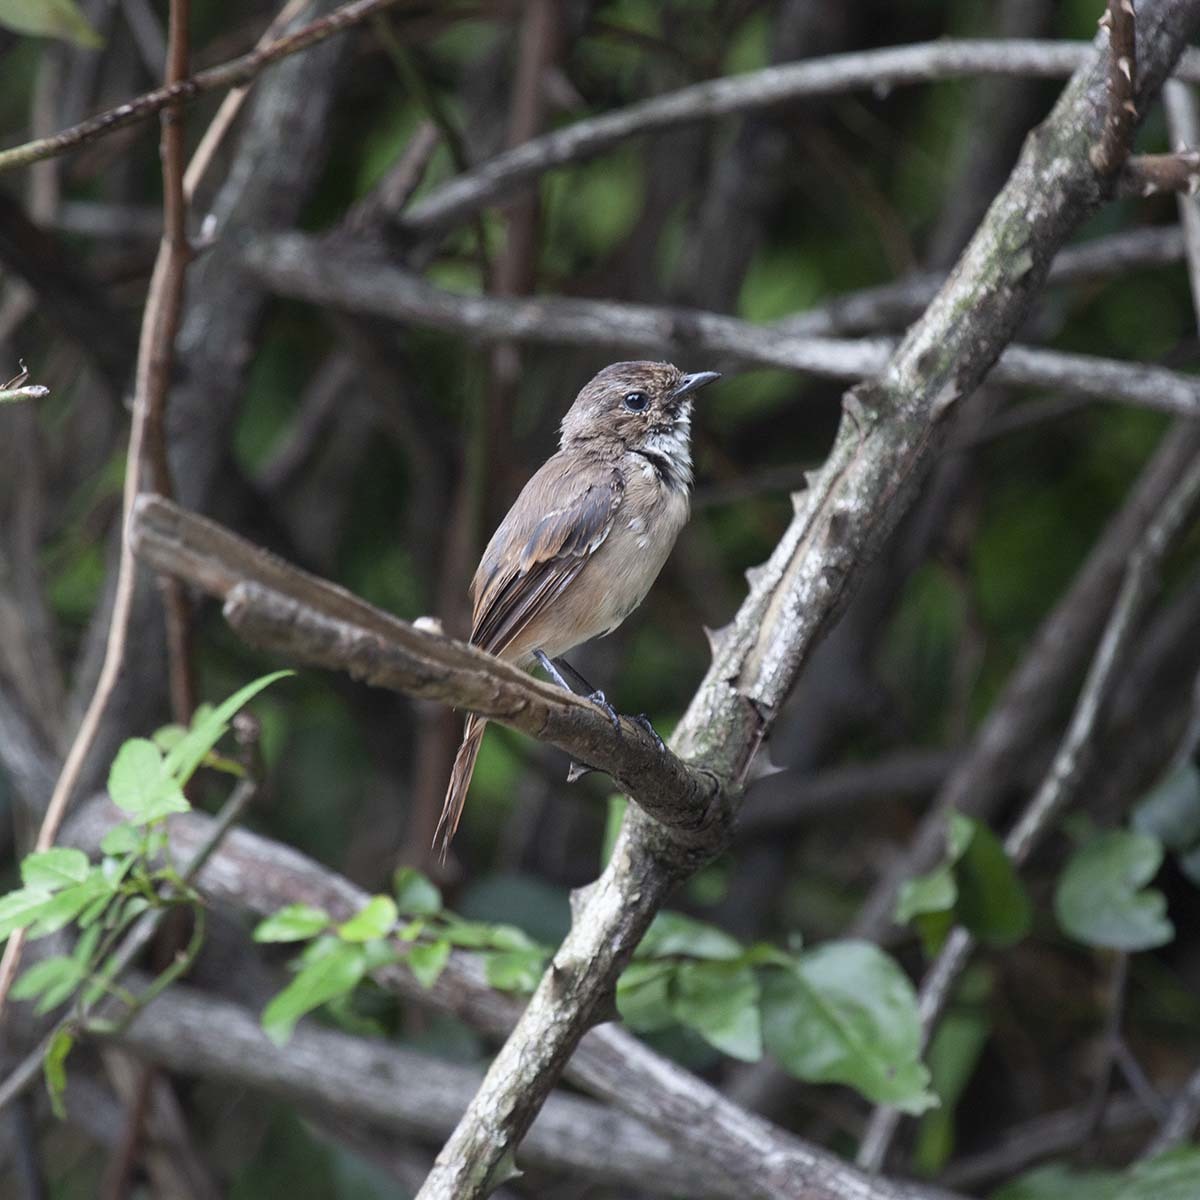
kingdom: Animalia
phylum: Chordata
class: Aves
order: Passeriformes
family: Muscicapidae
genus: Saxicola
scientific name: Saxicola ferreus
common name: Grey bush chat
